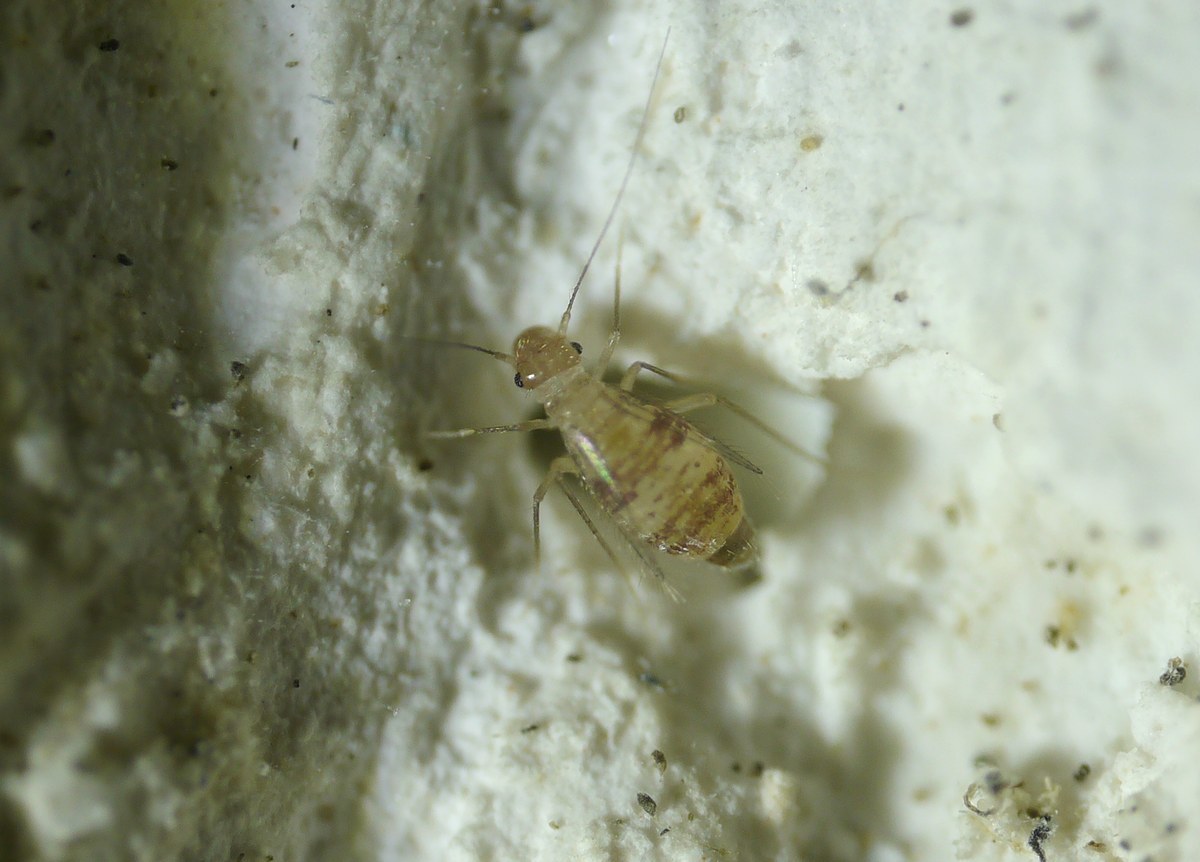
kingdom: Animalia
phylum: Arthropoda
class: Insecta
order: Psocodea
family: Psyllipsocidae
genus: Dorypteryx
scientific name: Dorypteryx domestica
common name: Cave barklouse
